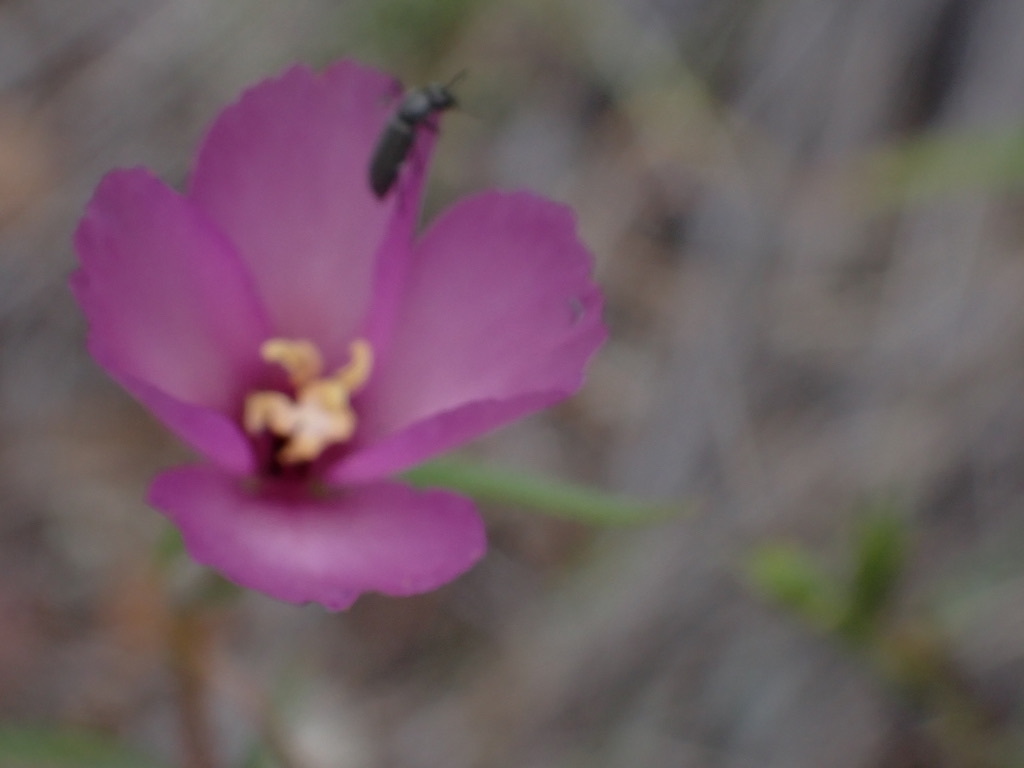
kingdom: Plantae
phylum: Tracheophyta
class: Magnoliopsida
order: Myrtales
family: Onagraceae
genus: Clarkia
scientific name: Clarkia gracilis
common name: Graceful clarkia
